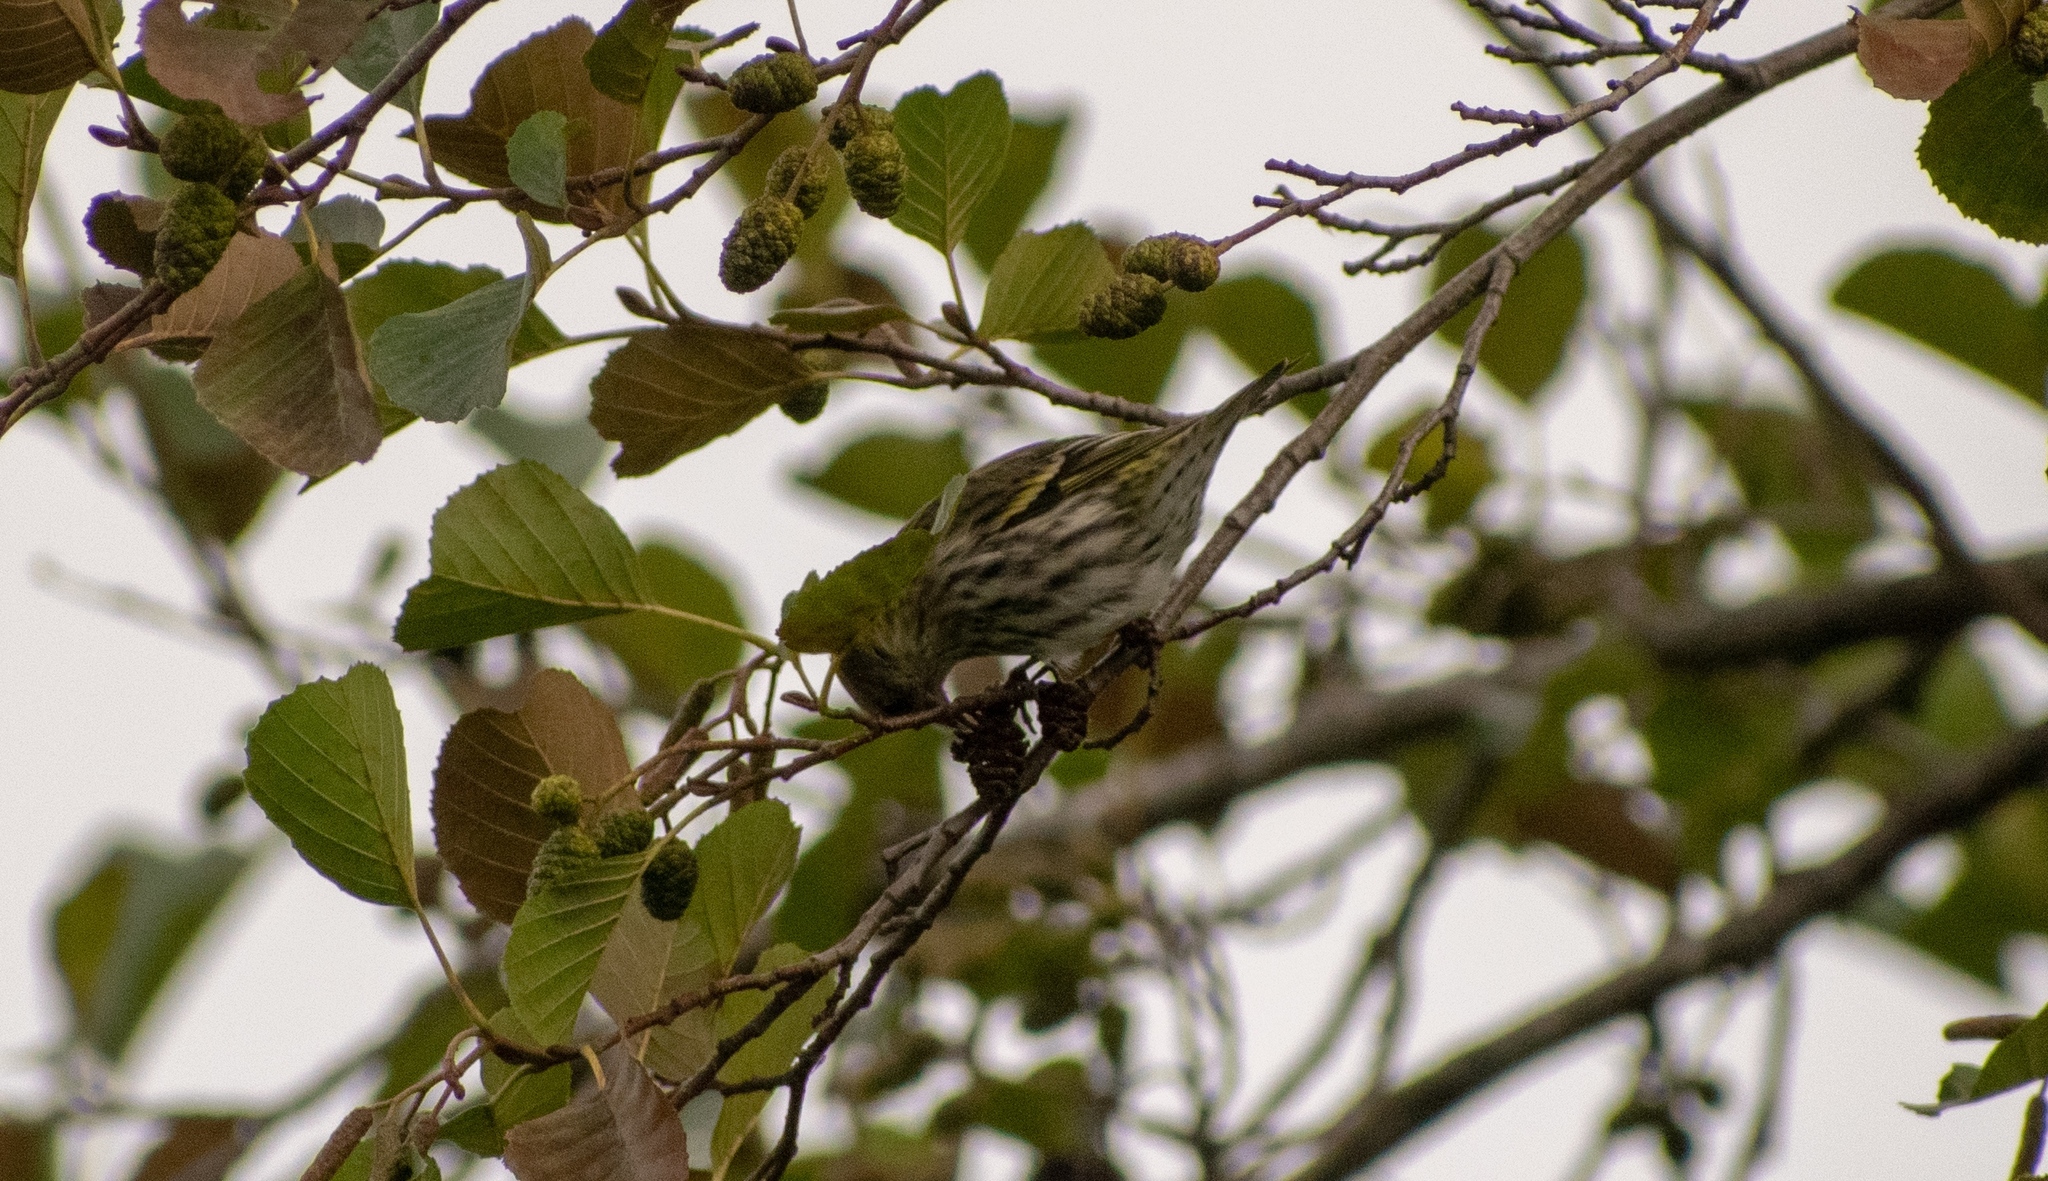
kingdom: Animalia
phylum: Chordata
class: Aves
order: Passeriformes
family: Fringillidae
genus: Spinus
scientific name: Spinus spinus
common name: Eurasian siskin
